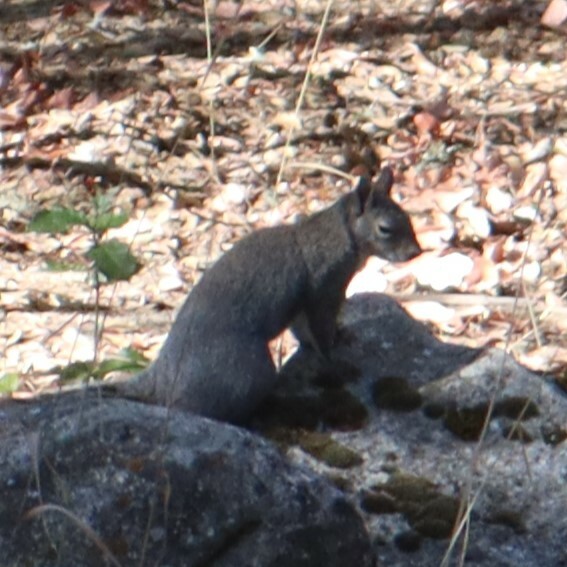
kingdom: Animalia
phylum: Chordata
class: Mammalia
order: Rodentia
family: Sciuridae
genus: Sciurus
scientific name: Sciurus griseus
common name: Western gray squirrel
